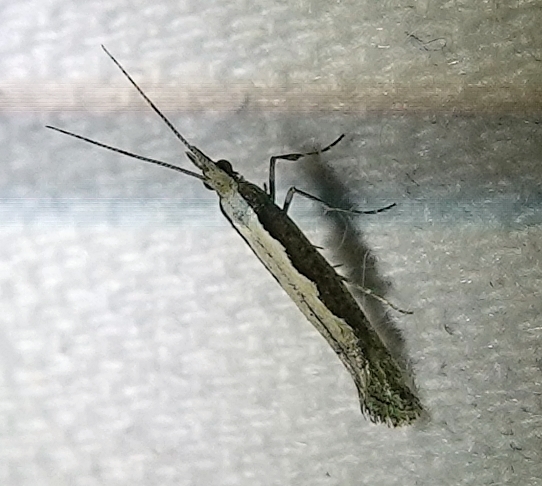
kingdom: Animalia
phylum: Arthropoda
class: Insecta
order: Lepidoptera
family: Plutellidae
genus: Plutella
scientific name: Plutella xylostella
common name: Diamond-back moth
